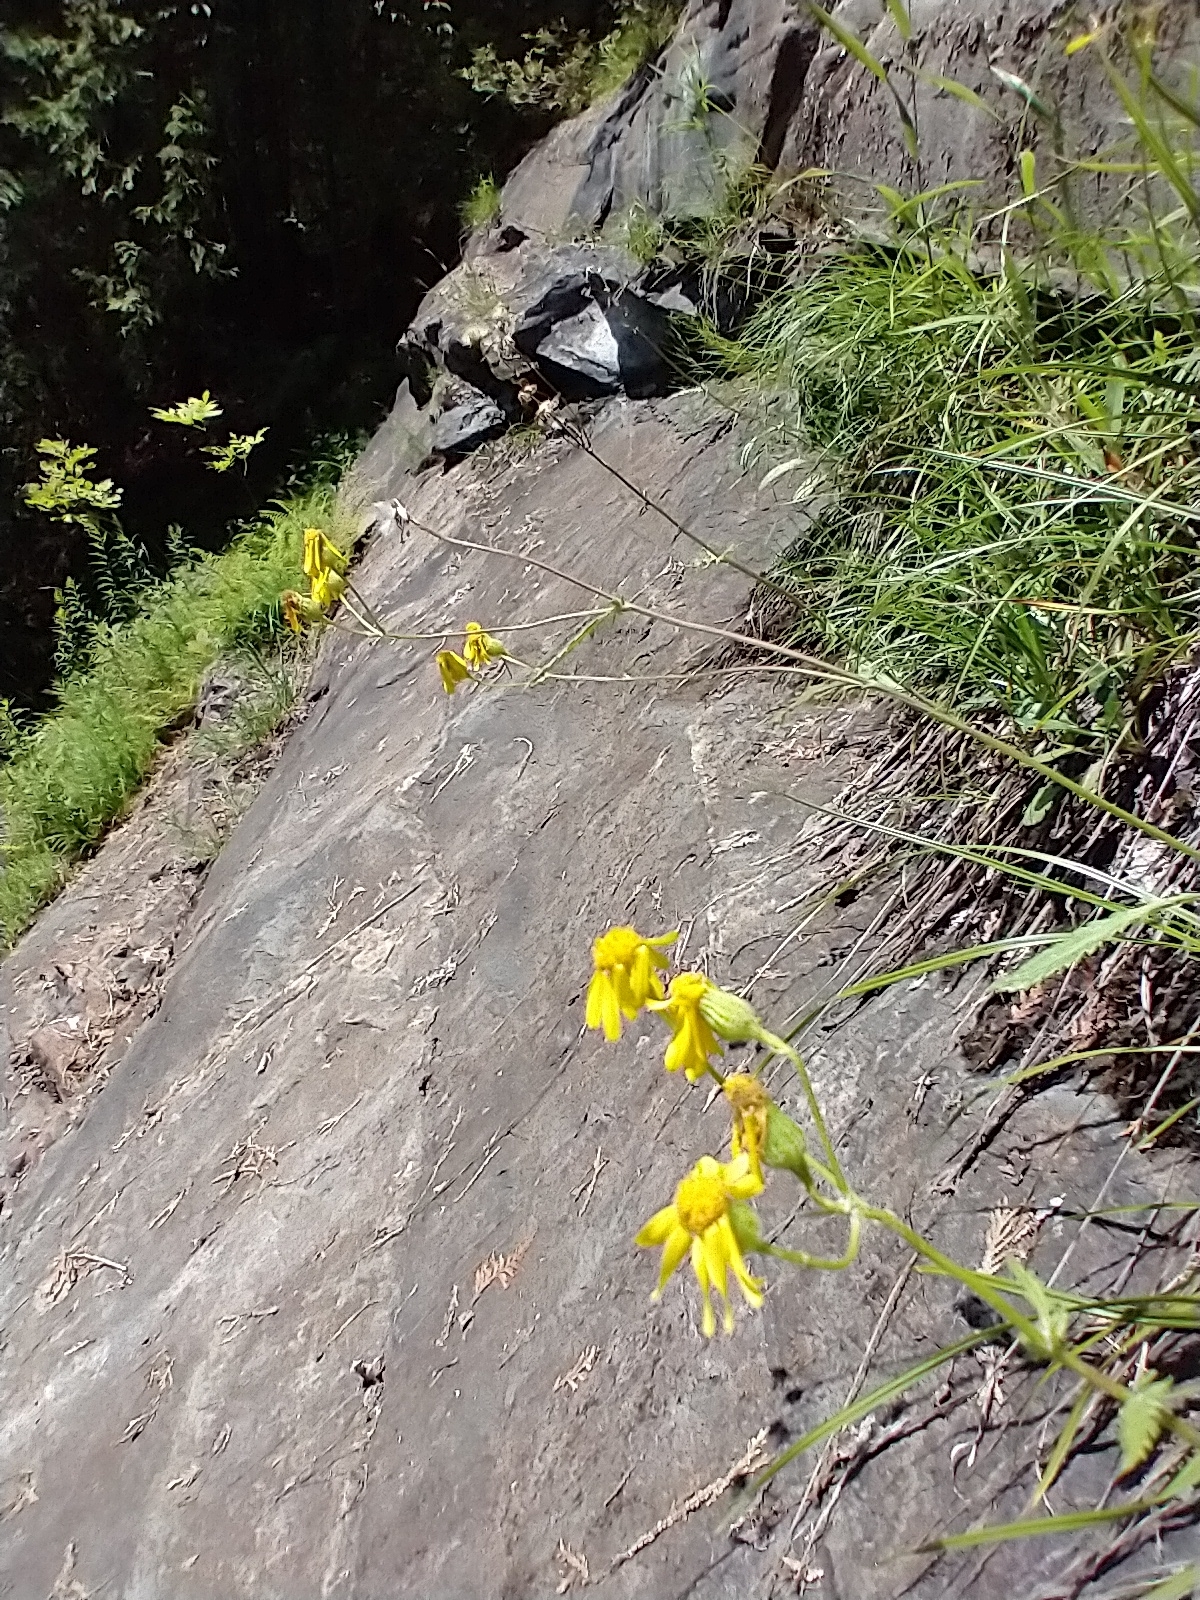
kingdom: Plantae
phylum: Tracheophyta
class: Magnoliopsida
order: Asterales
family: Asteraceae
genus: Packera
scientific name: Packera paupercula
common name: Balsam groundsel
